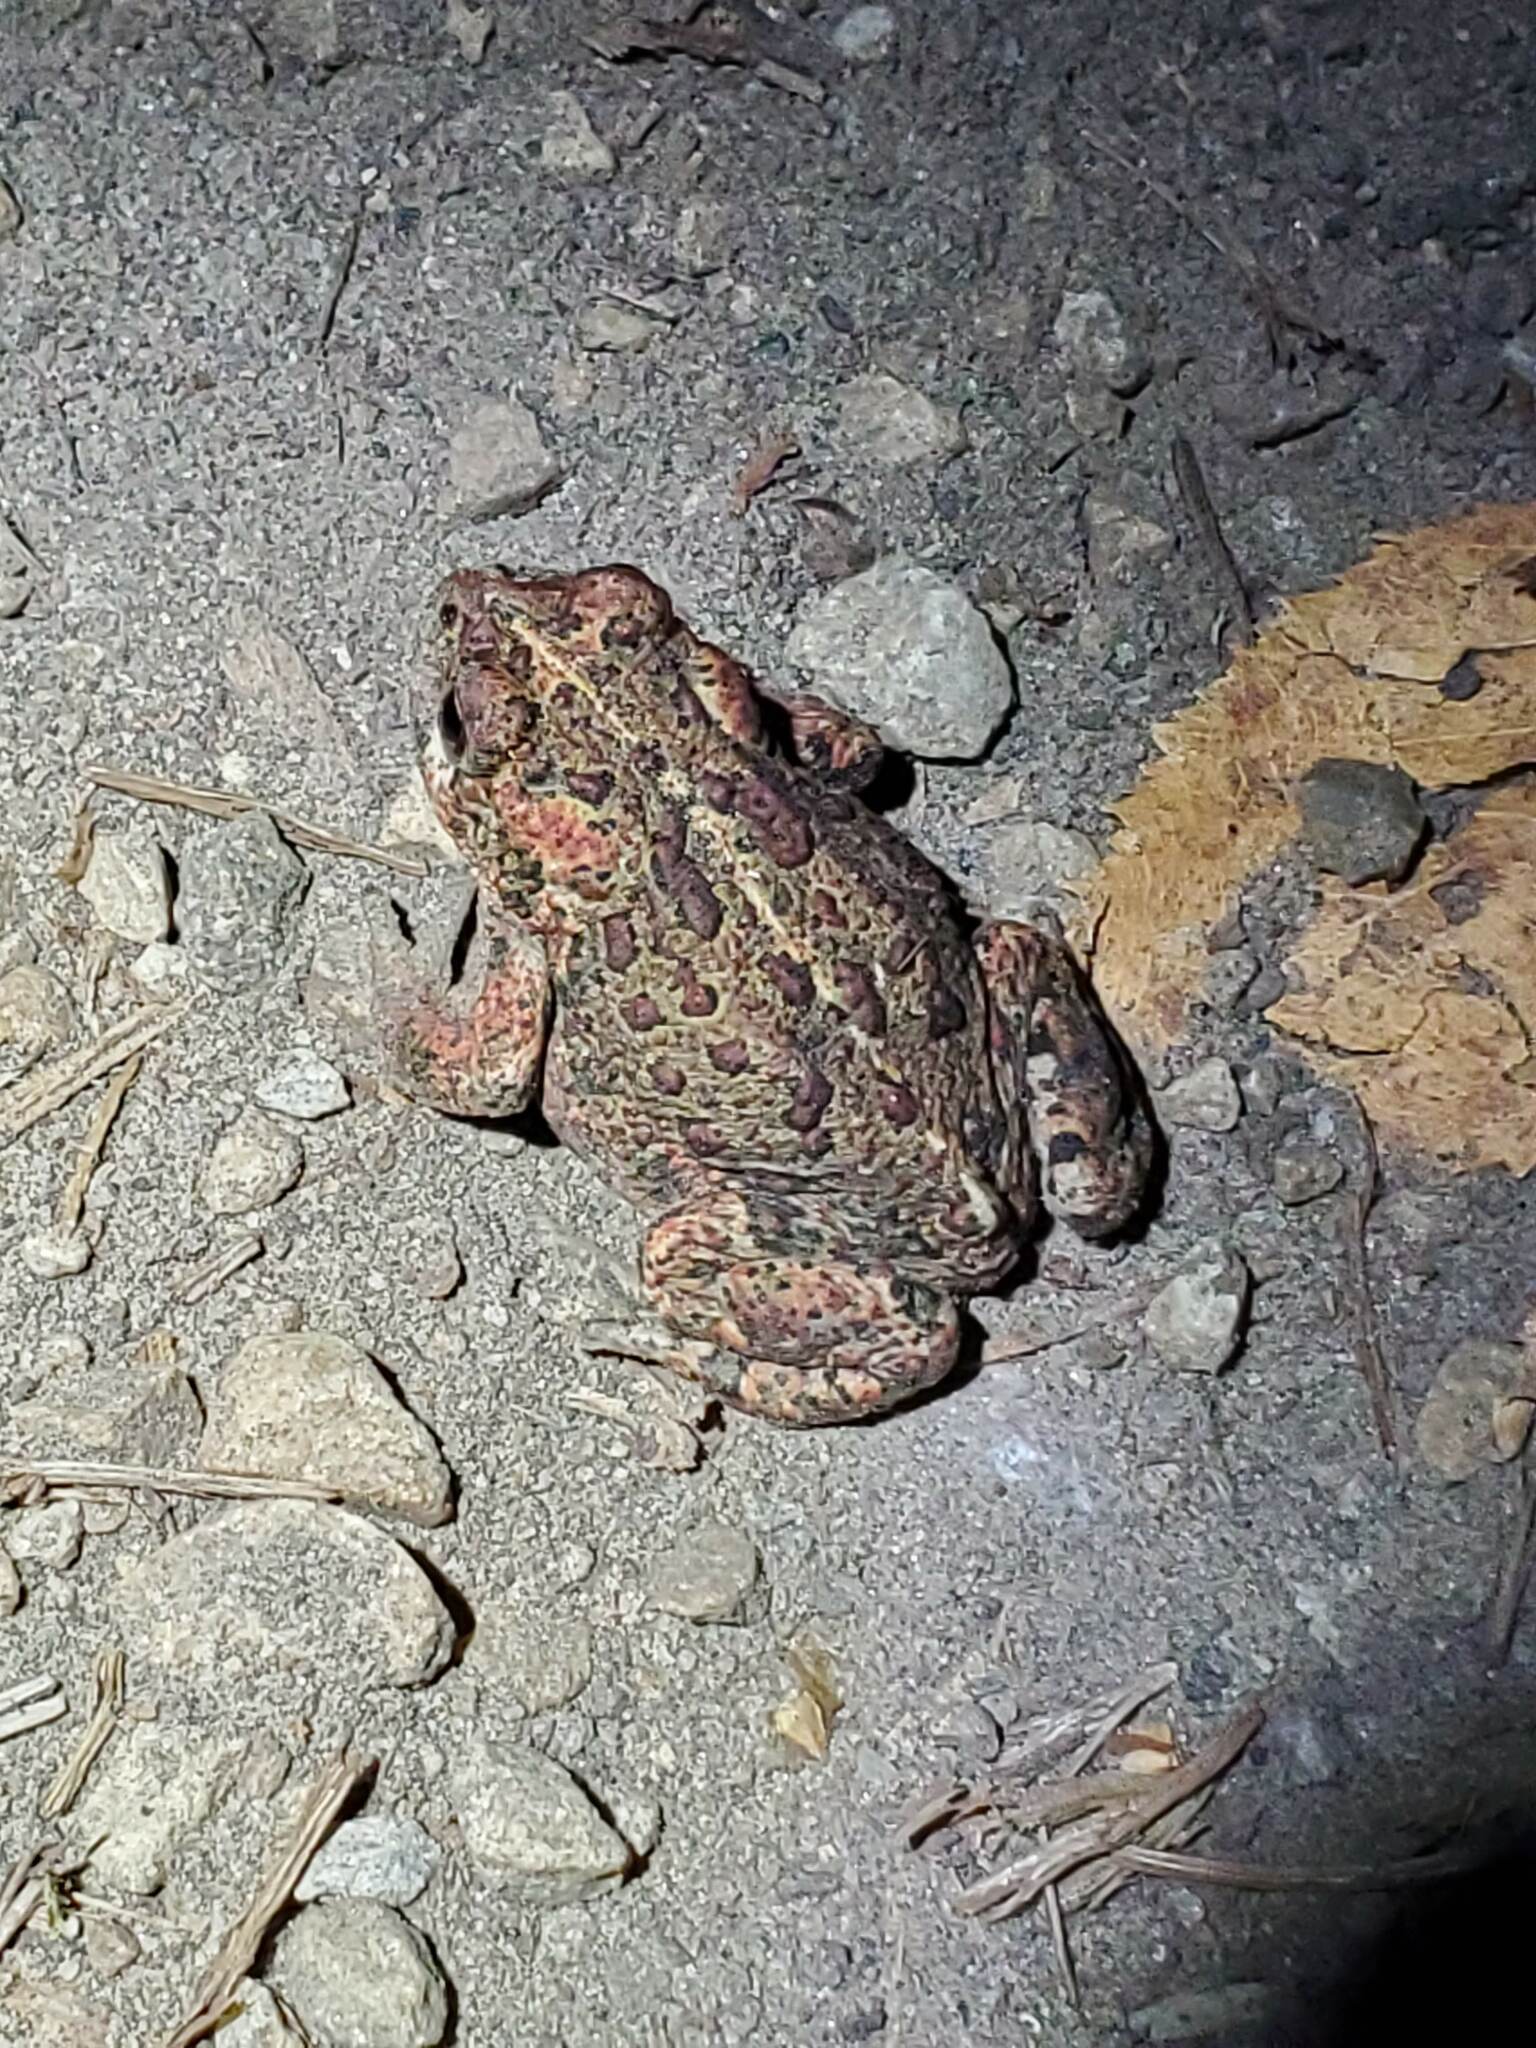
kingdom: Animalia
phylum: Chordata
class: Amphibia
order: Anura
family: Bufonidae
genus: Anaxyrus
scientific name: Anaxyrus boreas
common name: Western toad
